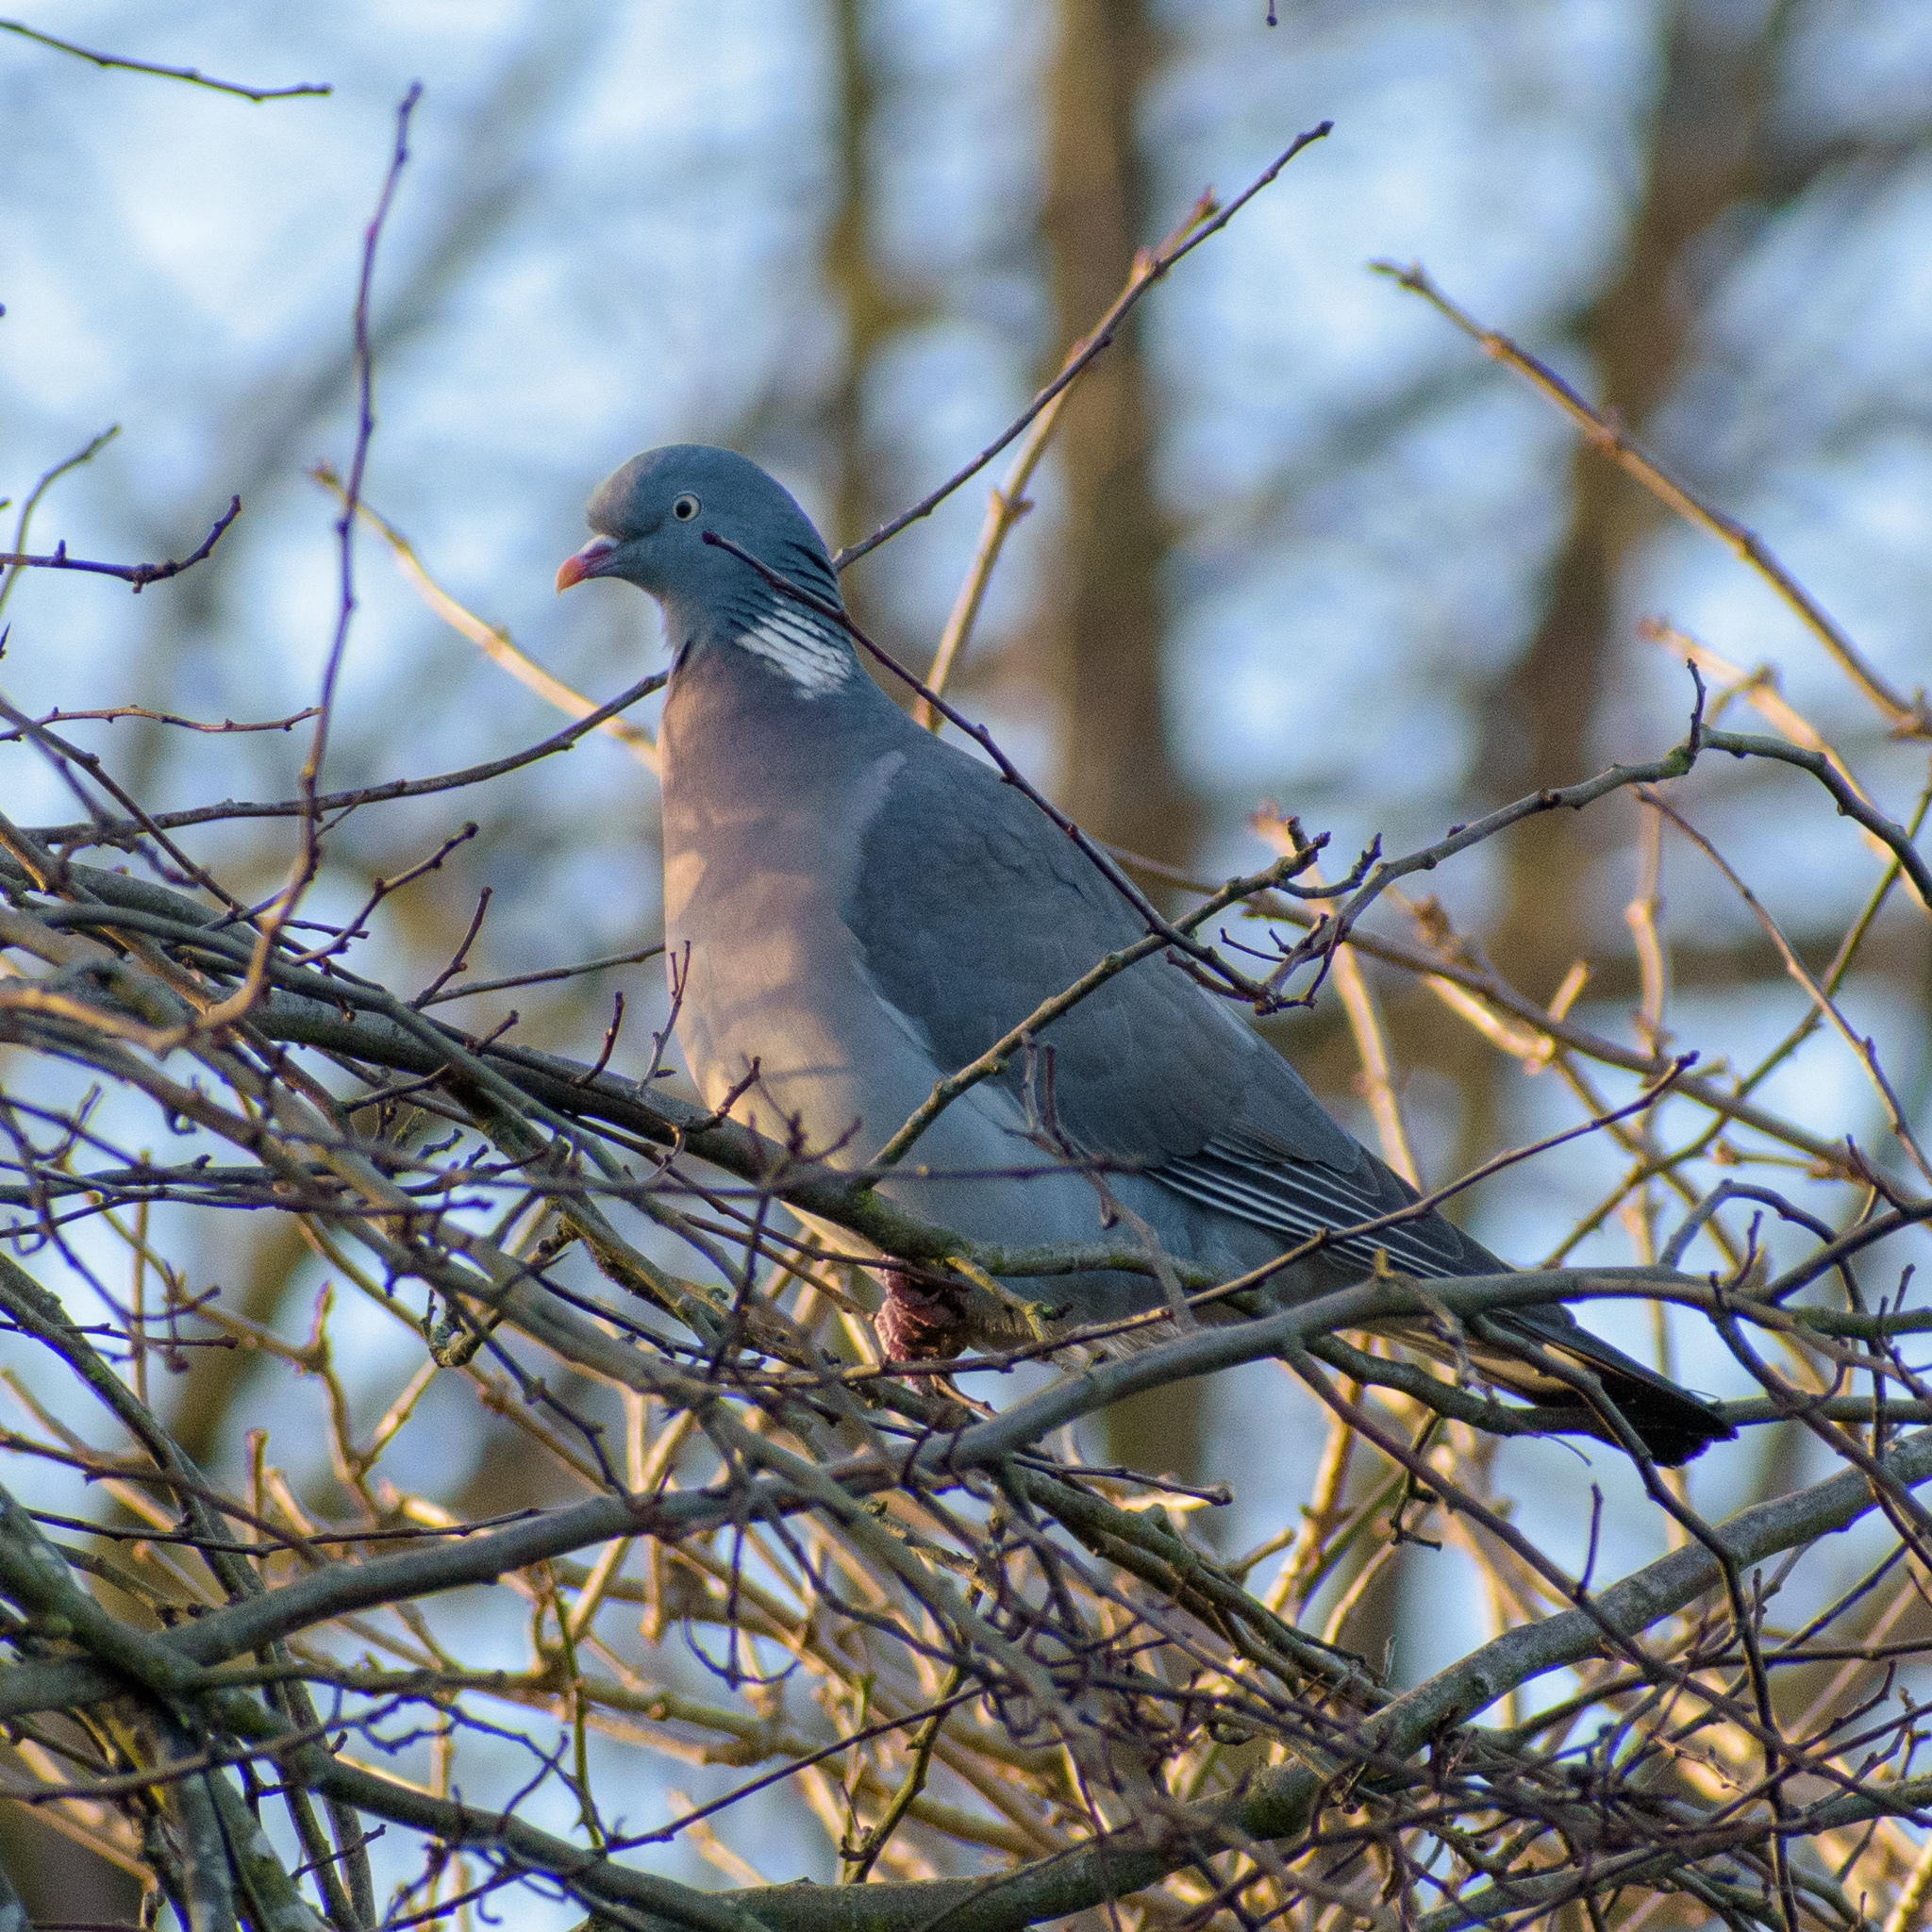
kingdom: Animalia
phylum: Chordata
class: Aves
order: Columbiformes
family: Columbidae
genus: Columba
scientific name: Columba palumbus
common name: Common wood pigeon
